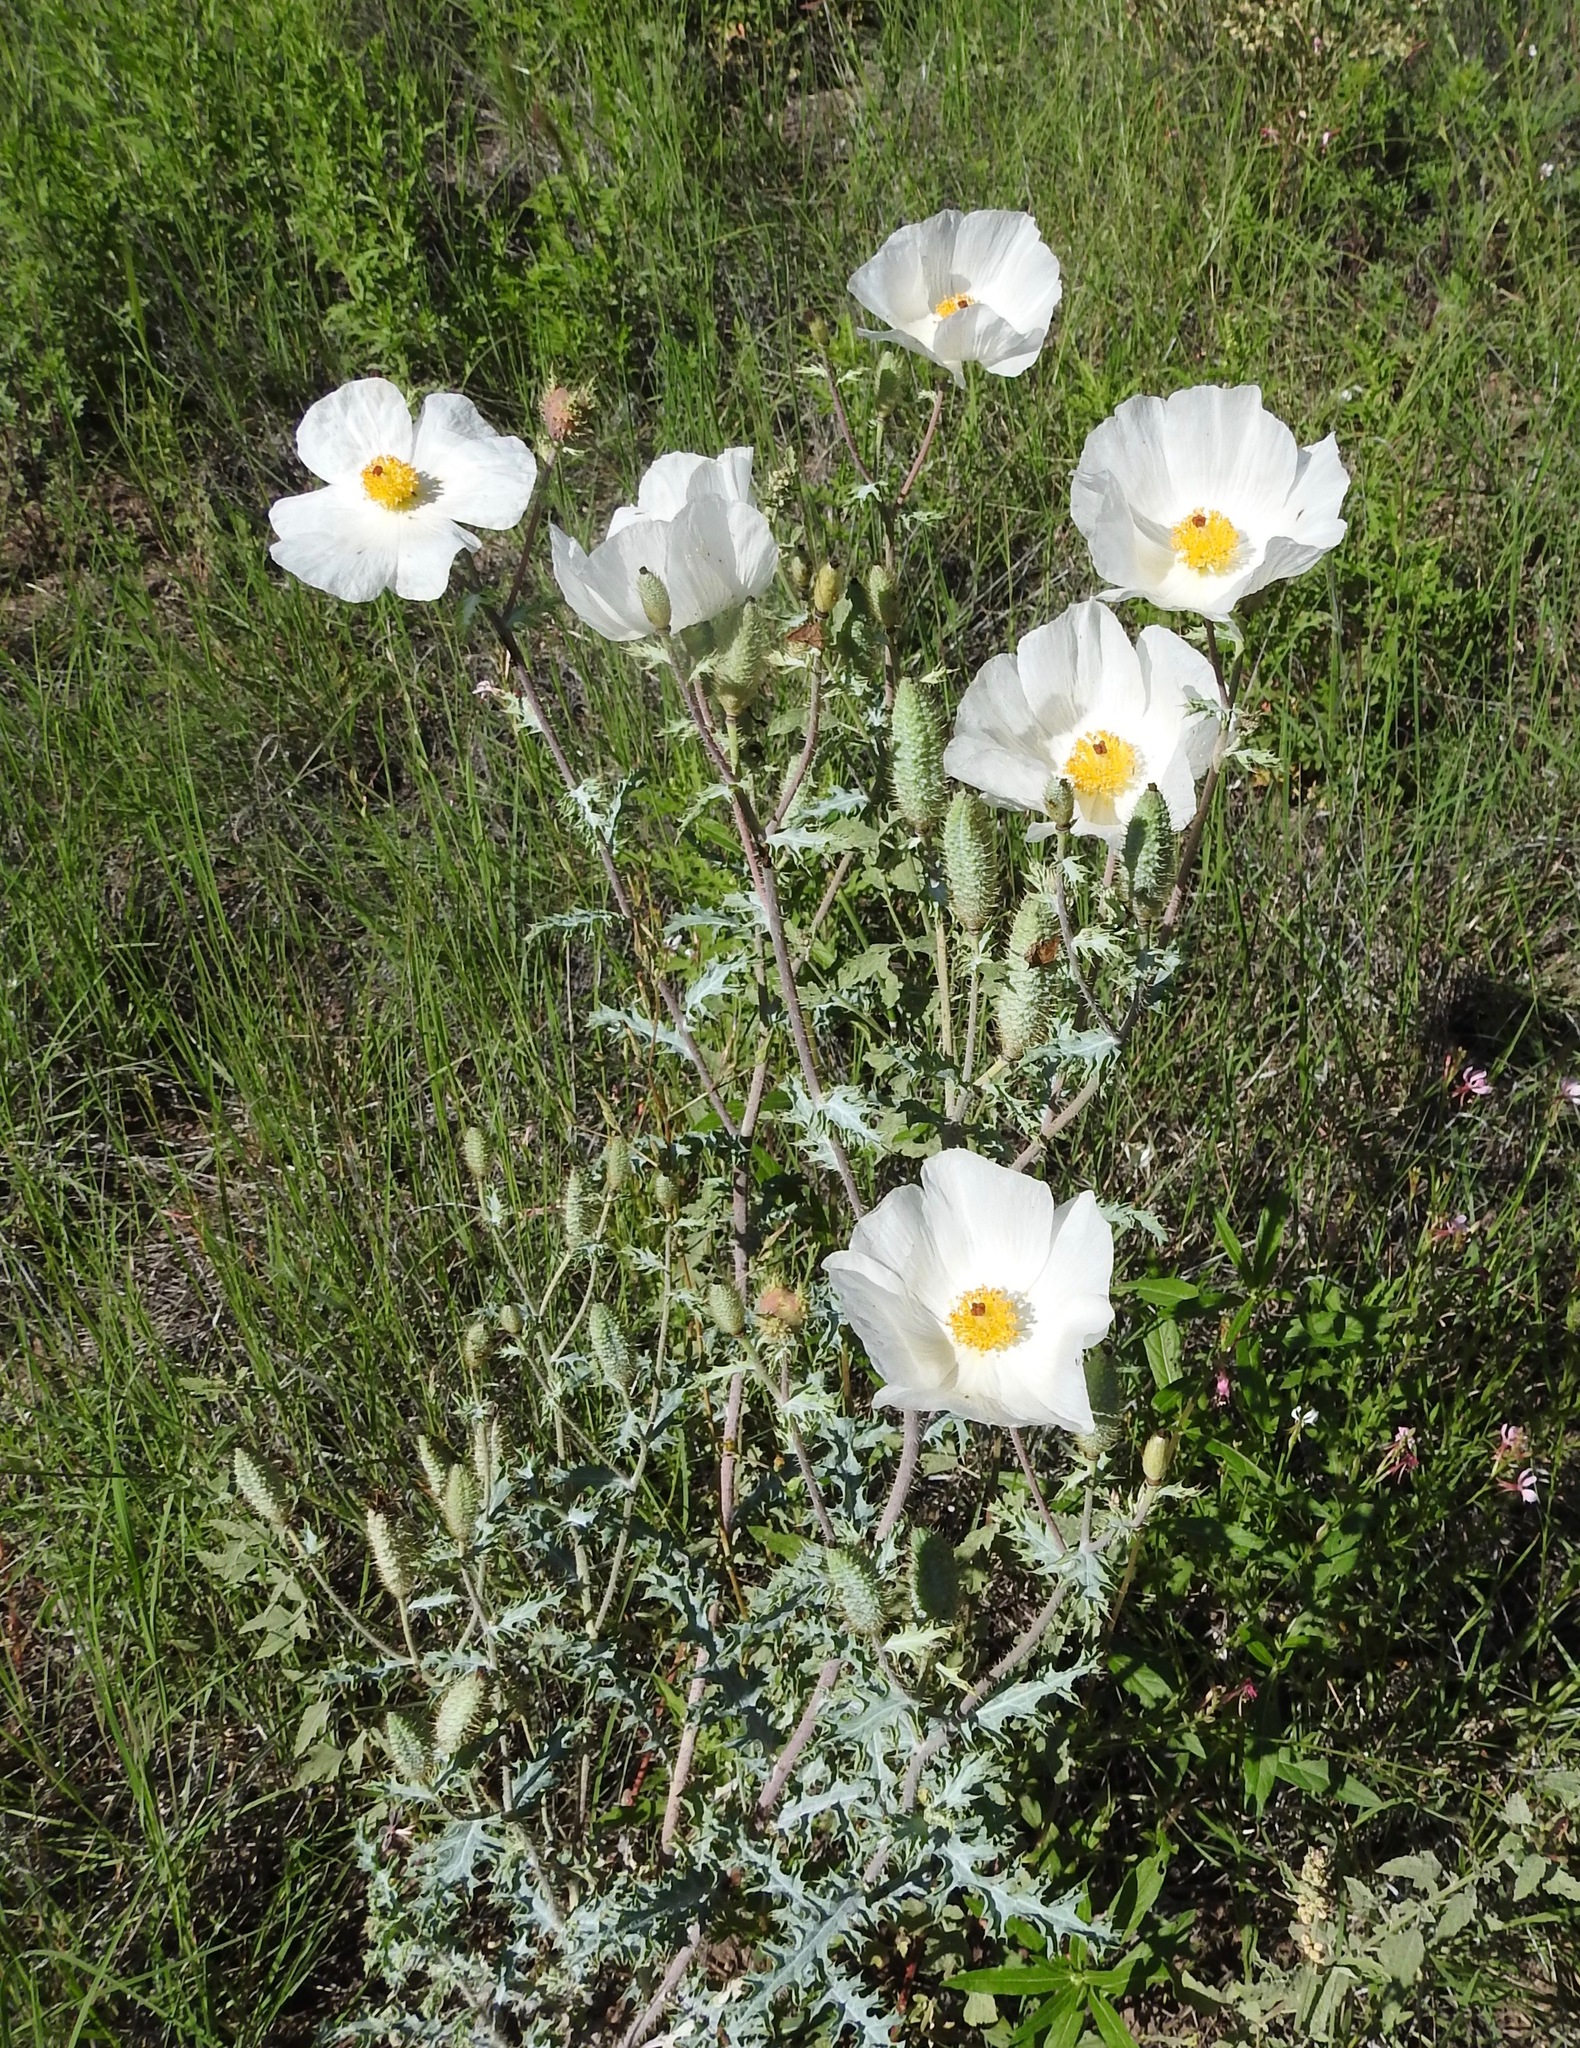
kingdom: Plantae
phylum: Tracheophyta
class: Magnoliopsida
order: Ranunculales
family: Papaveraceae
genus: Argemone
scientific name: Argemone pleiacantha
